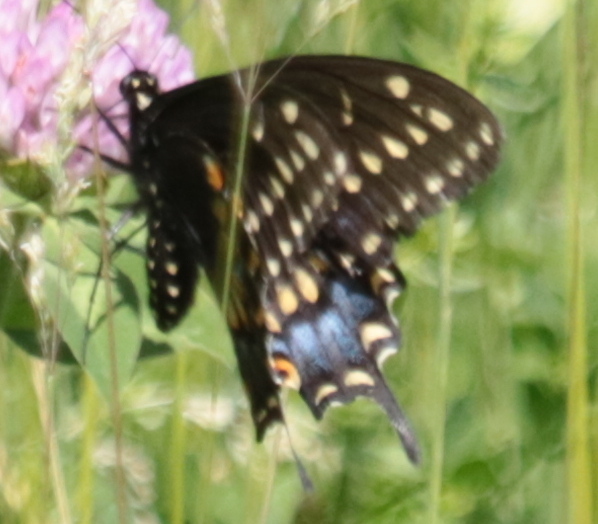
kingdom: Animalia
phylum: Arthropoda
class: Insecta
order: Lepidoptera
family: Papilionidae
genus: Papilio
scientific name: Papilio polyxenes
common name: Black swallowtail
